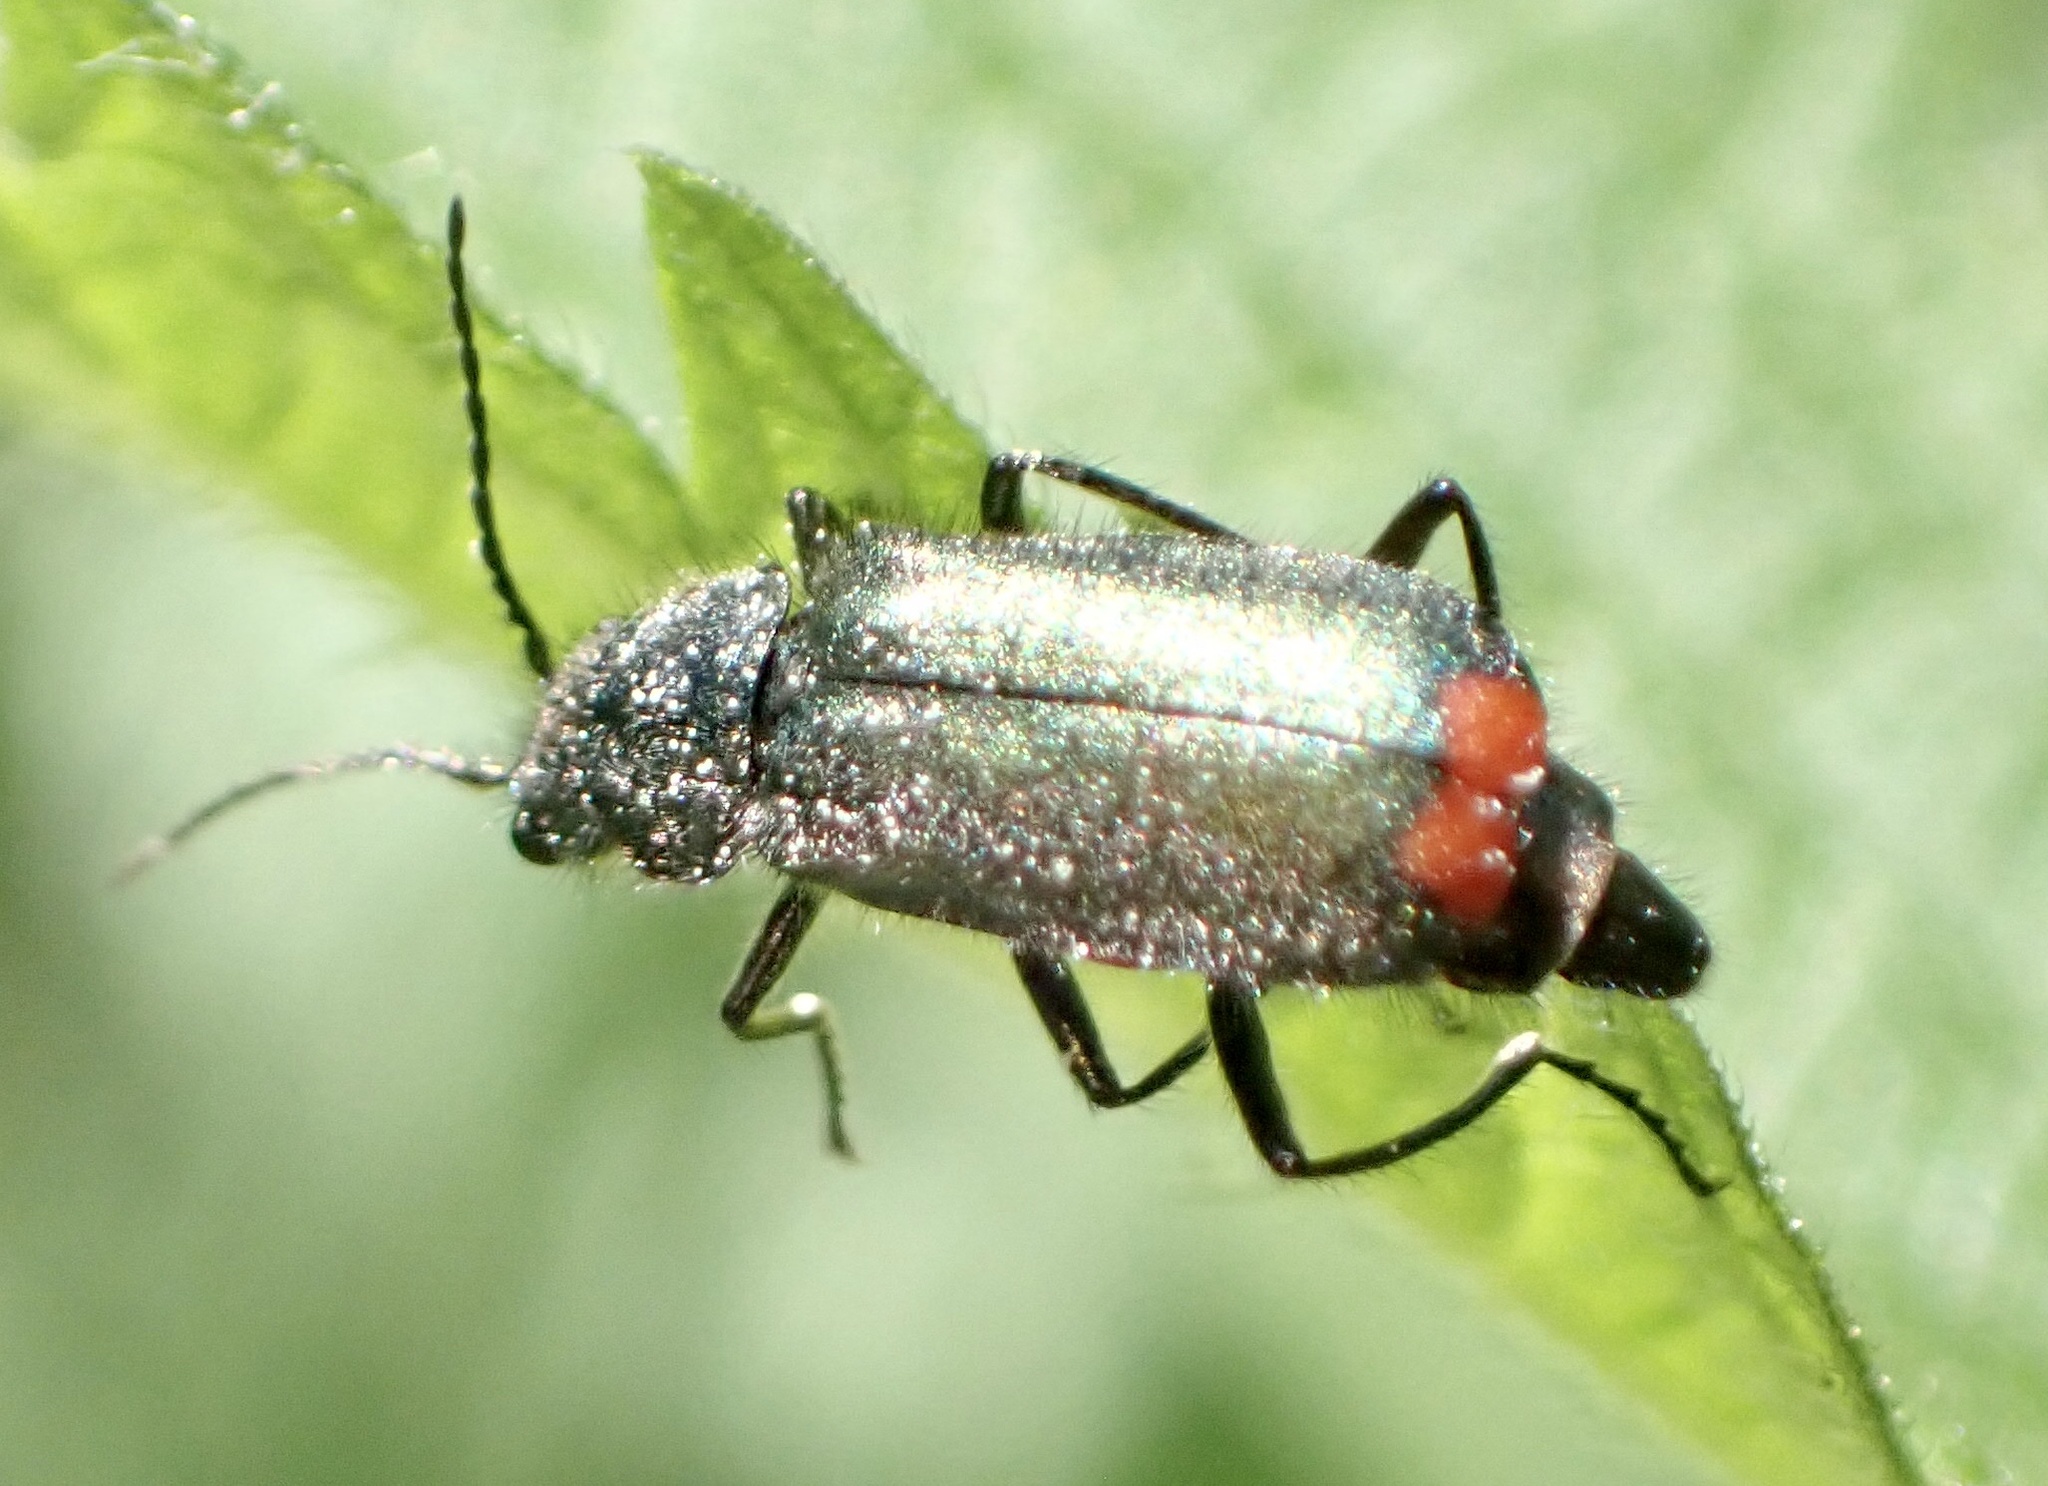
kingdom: Animalia
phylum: Arthropoda
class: Insecta
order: Coleoptera
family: Melyridae
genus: Malachius
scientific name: Malachius bipustulatus
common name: Malachite beetle
